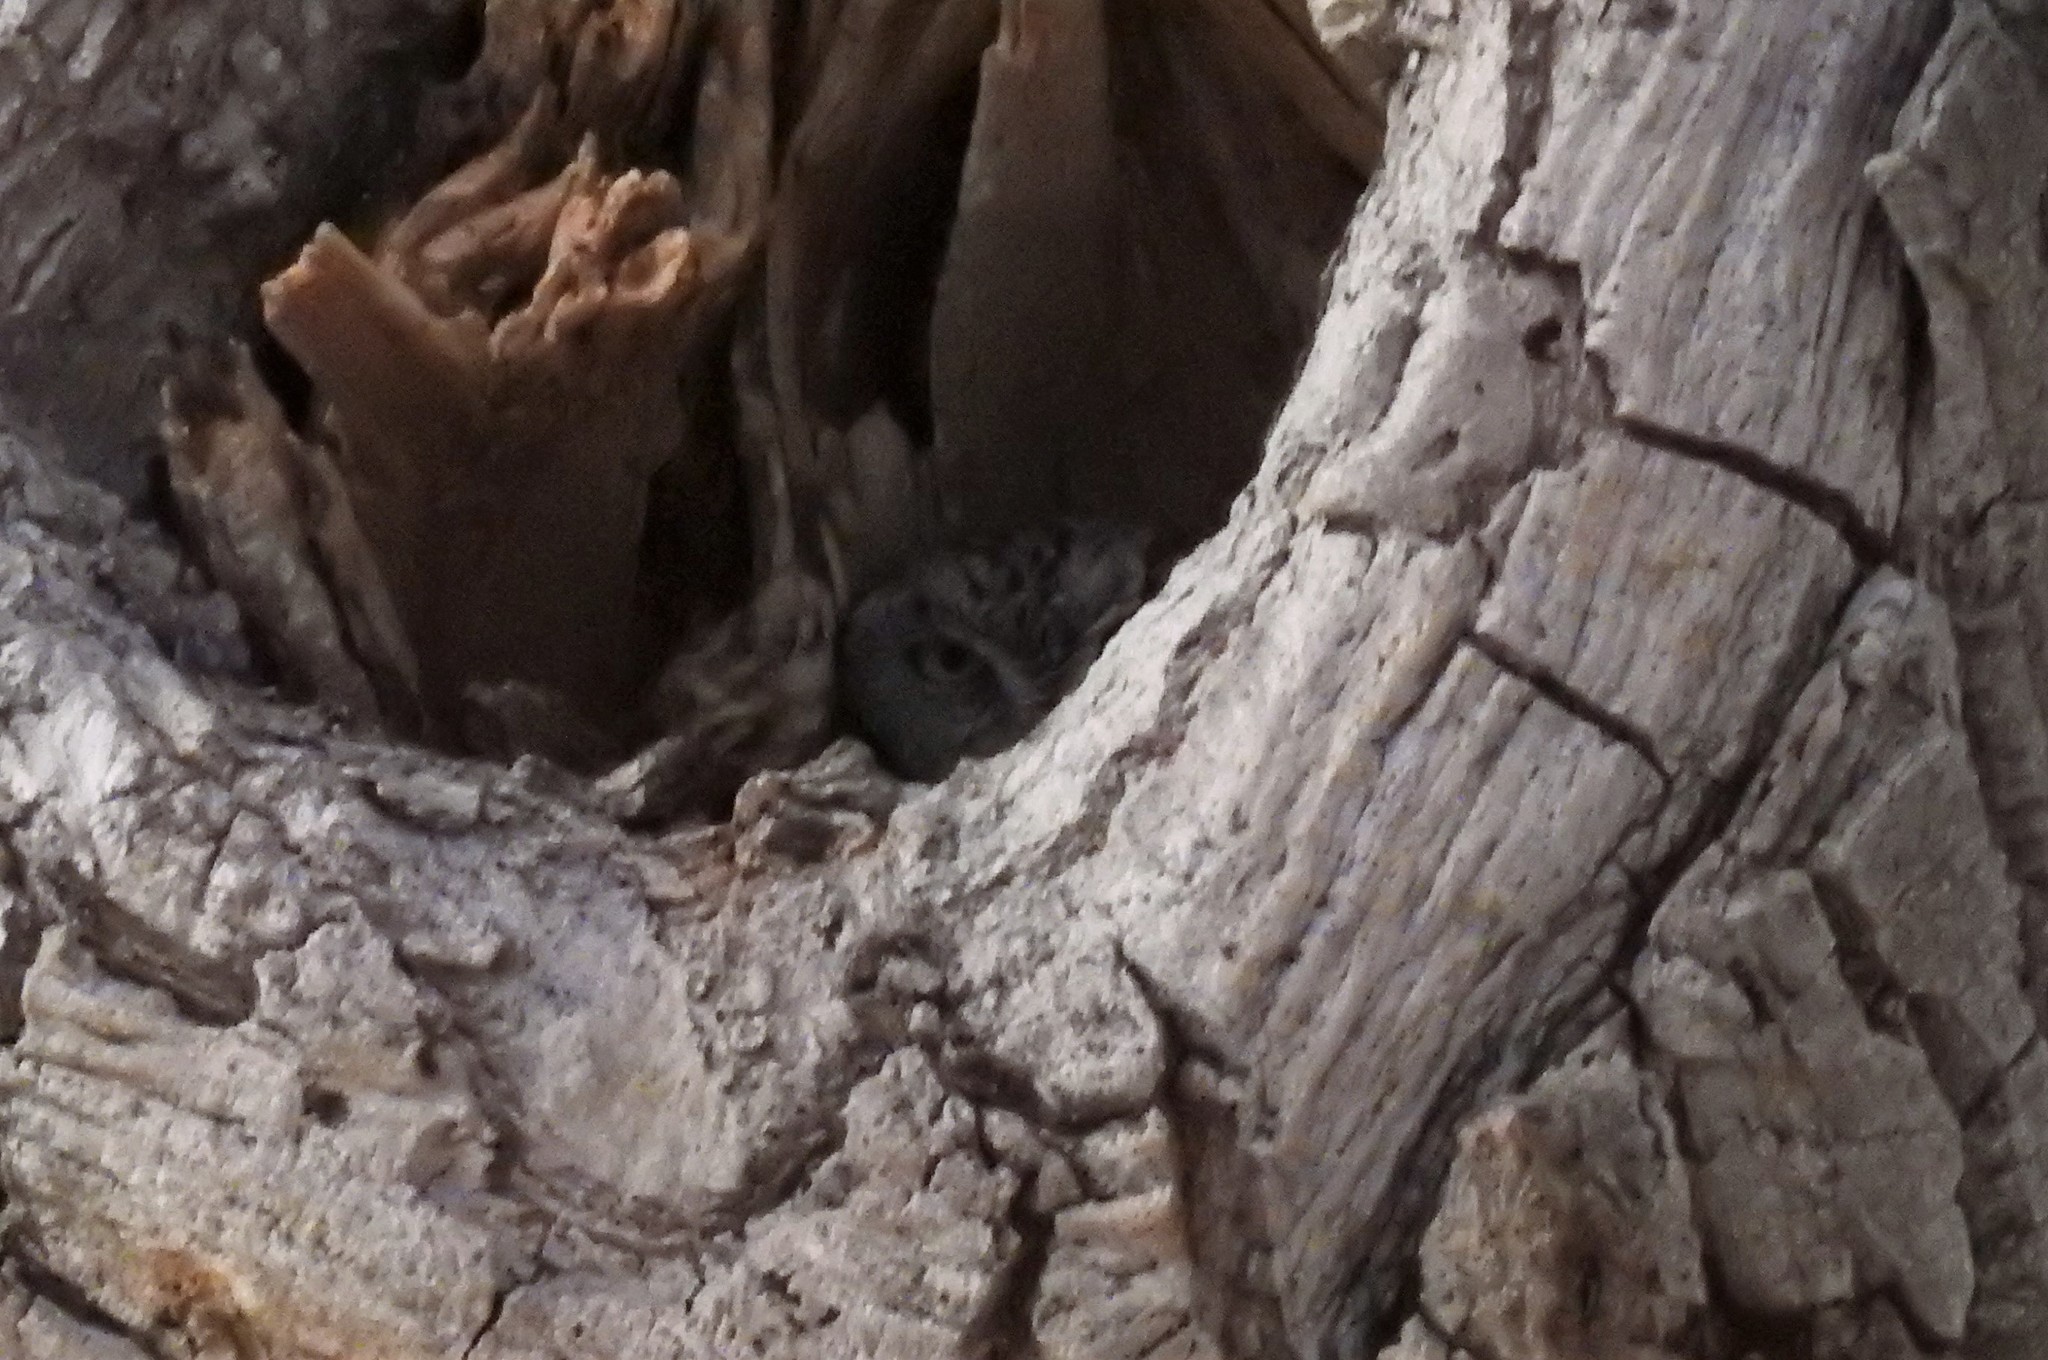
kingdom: Animalia
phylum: Chordata
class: Aves
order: Strigiformes
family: Strigidae
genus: Megascops
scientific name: Megascops kennicottii
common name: Western screech-owl
